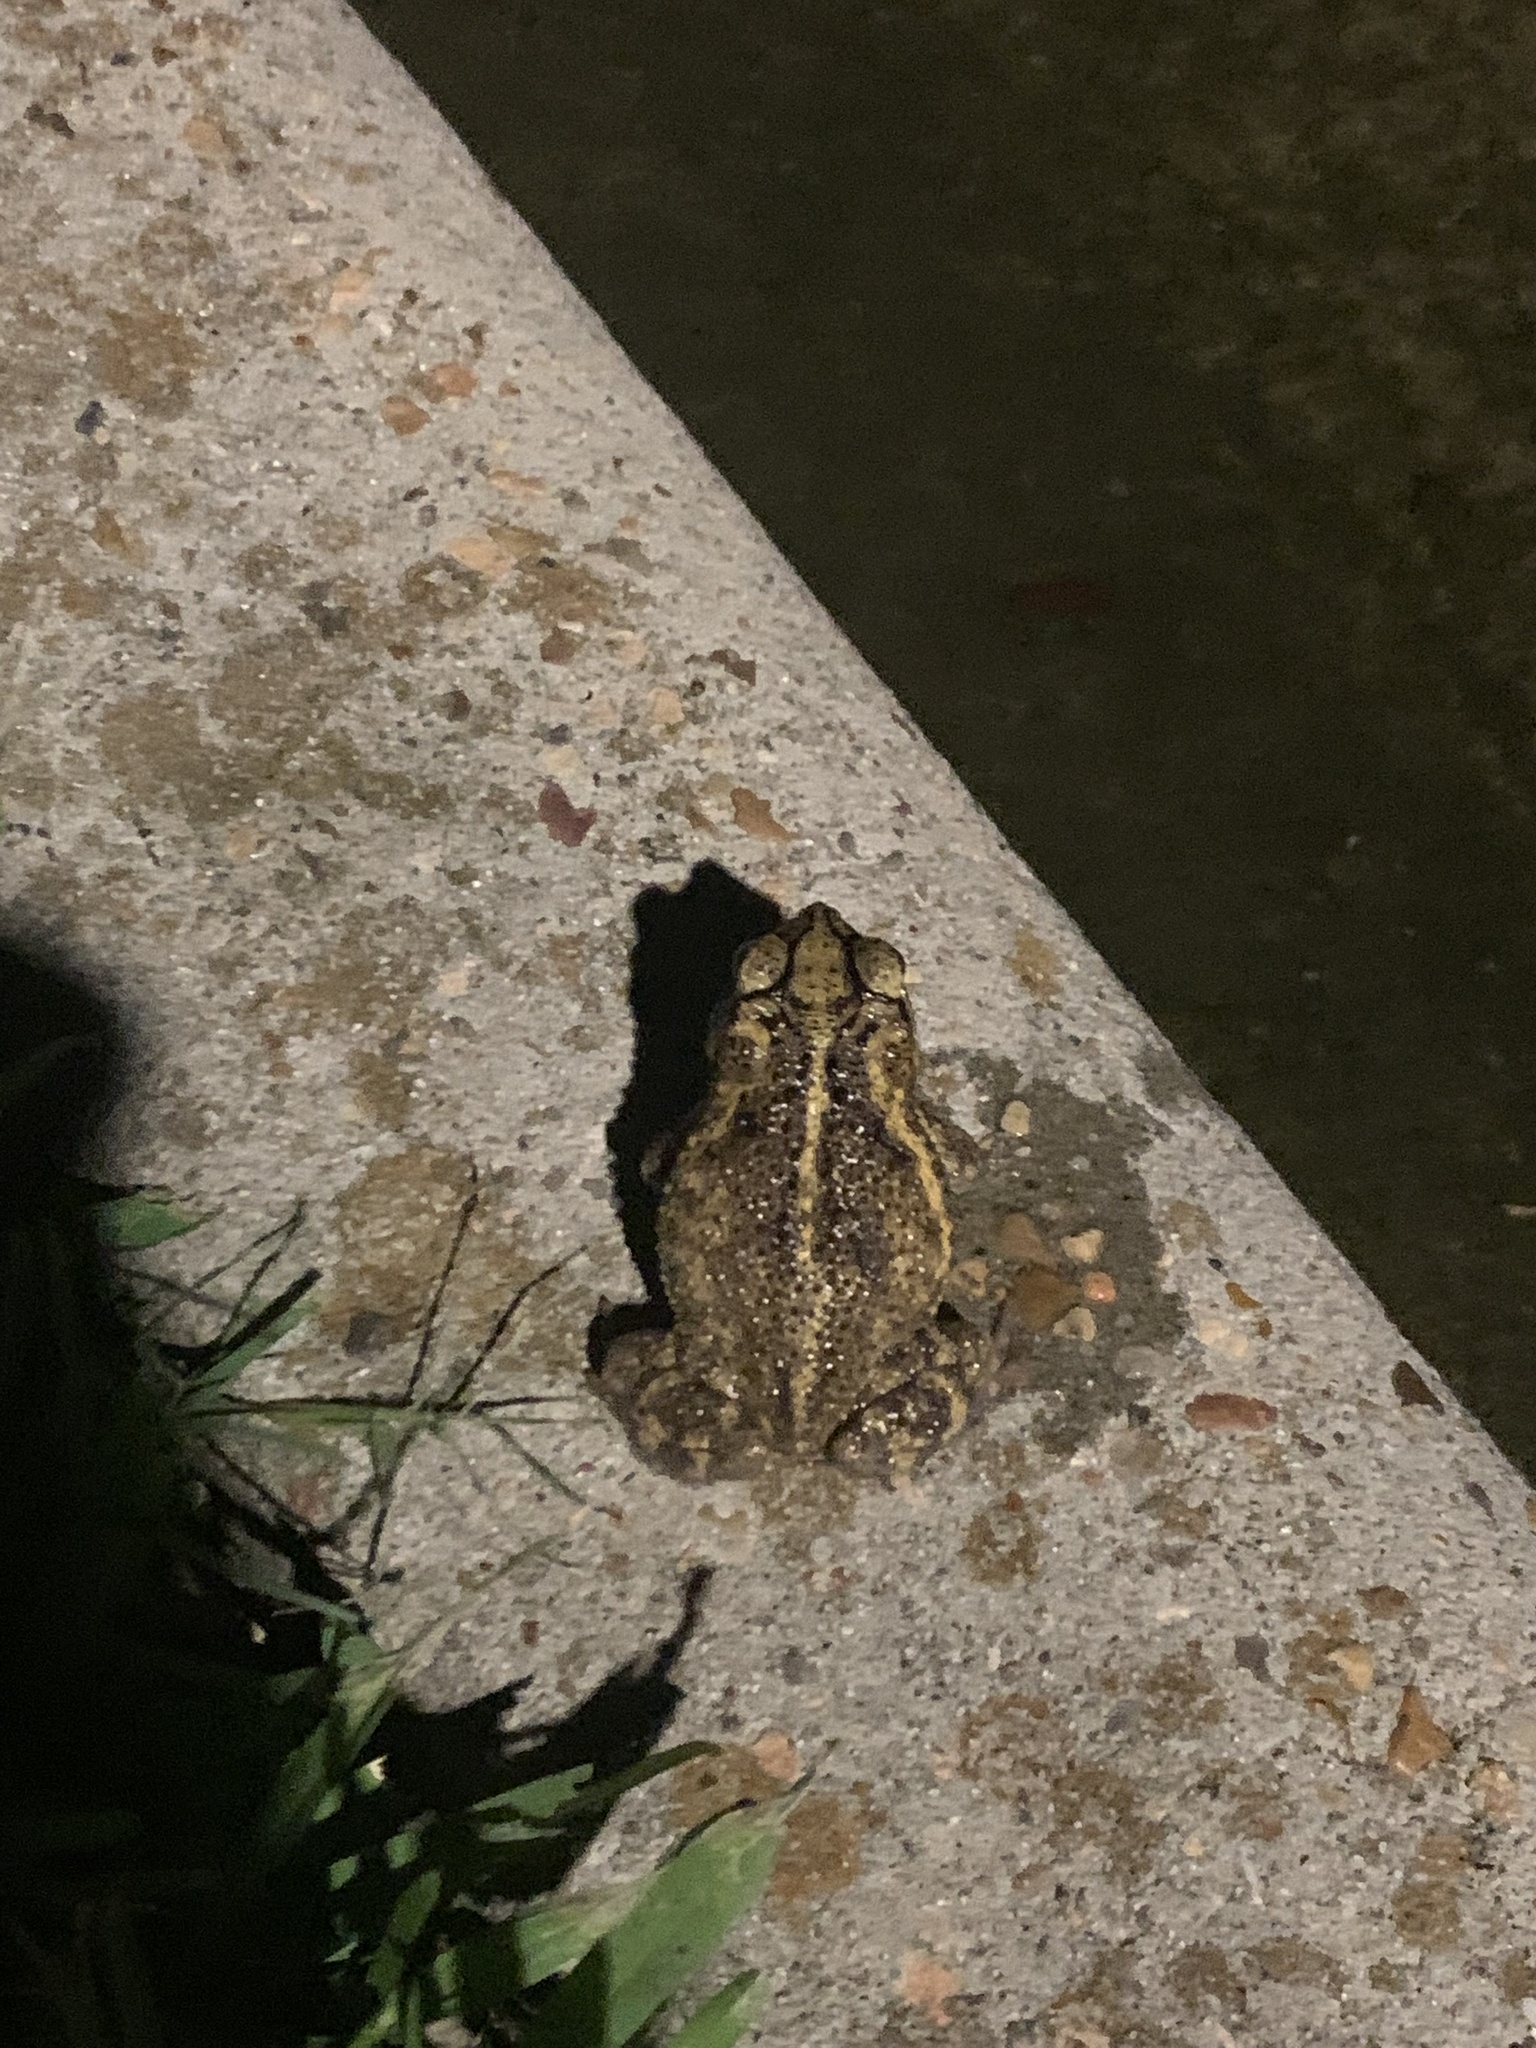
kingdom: Animalia
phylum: Chordata
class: Amphibia
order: Anura
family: Bufonidae
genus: Incilius
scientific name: Incilius nebulifer
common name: Gulf coast toad
